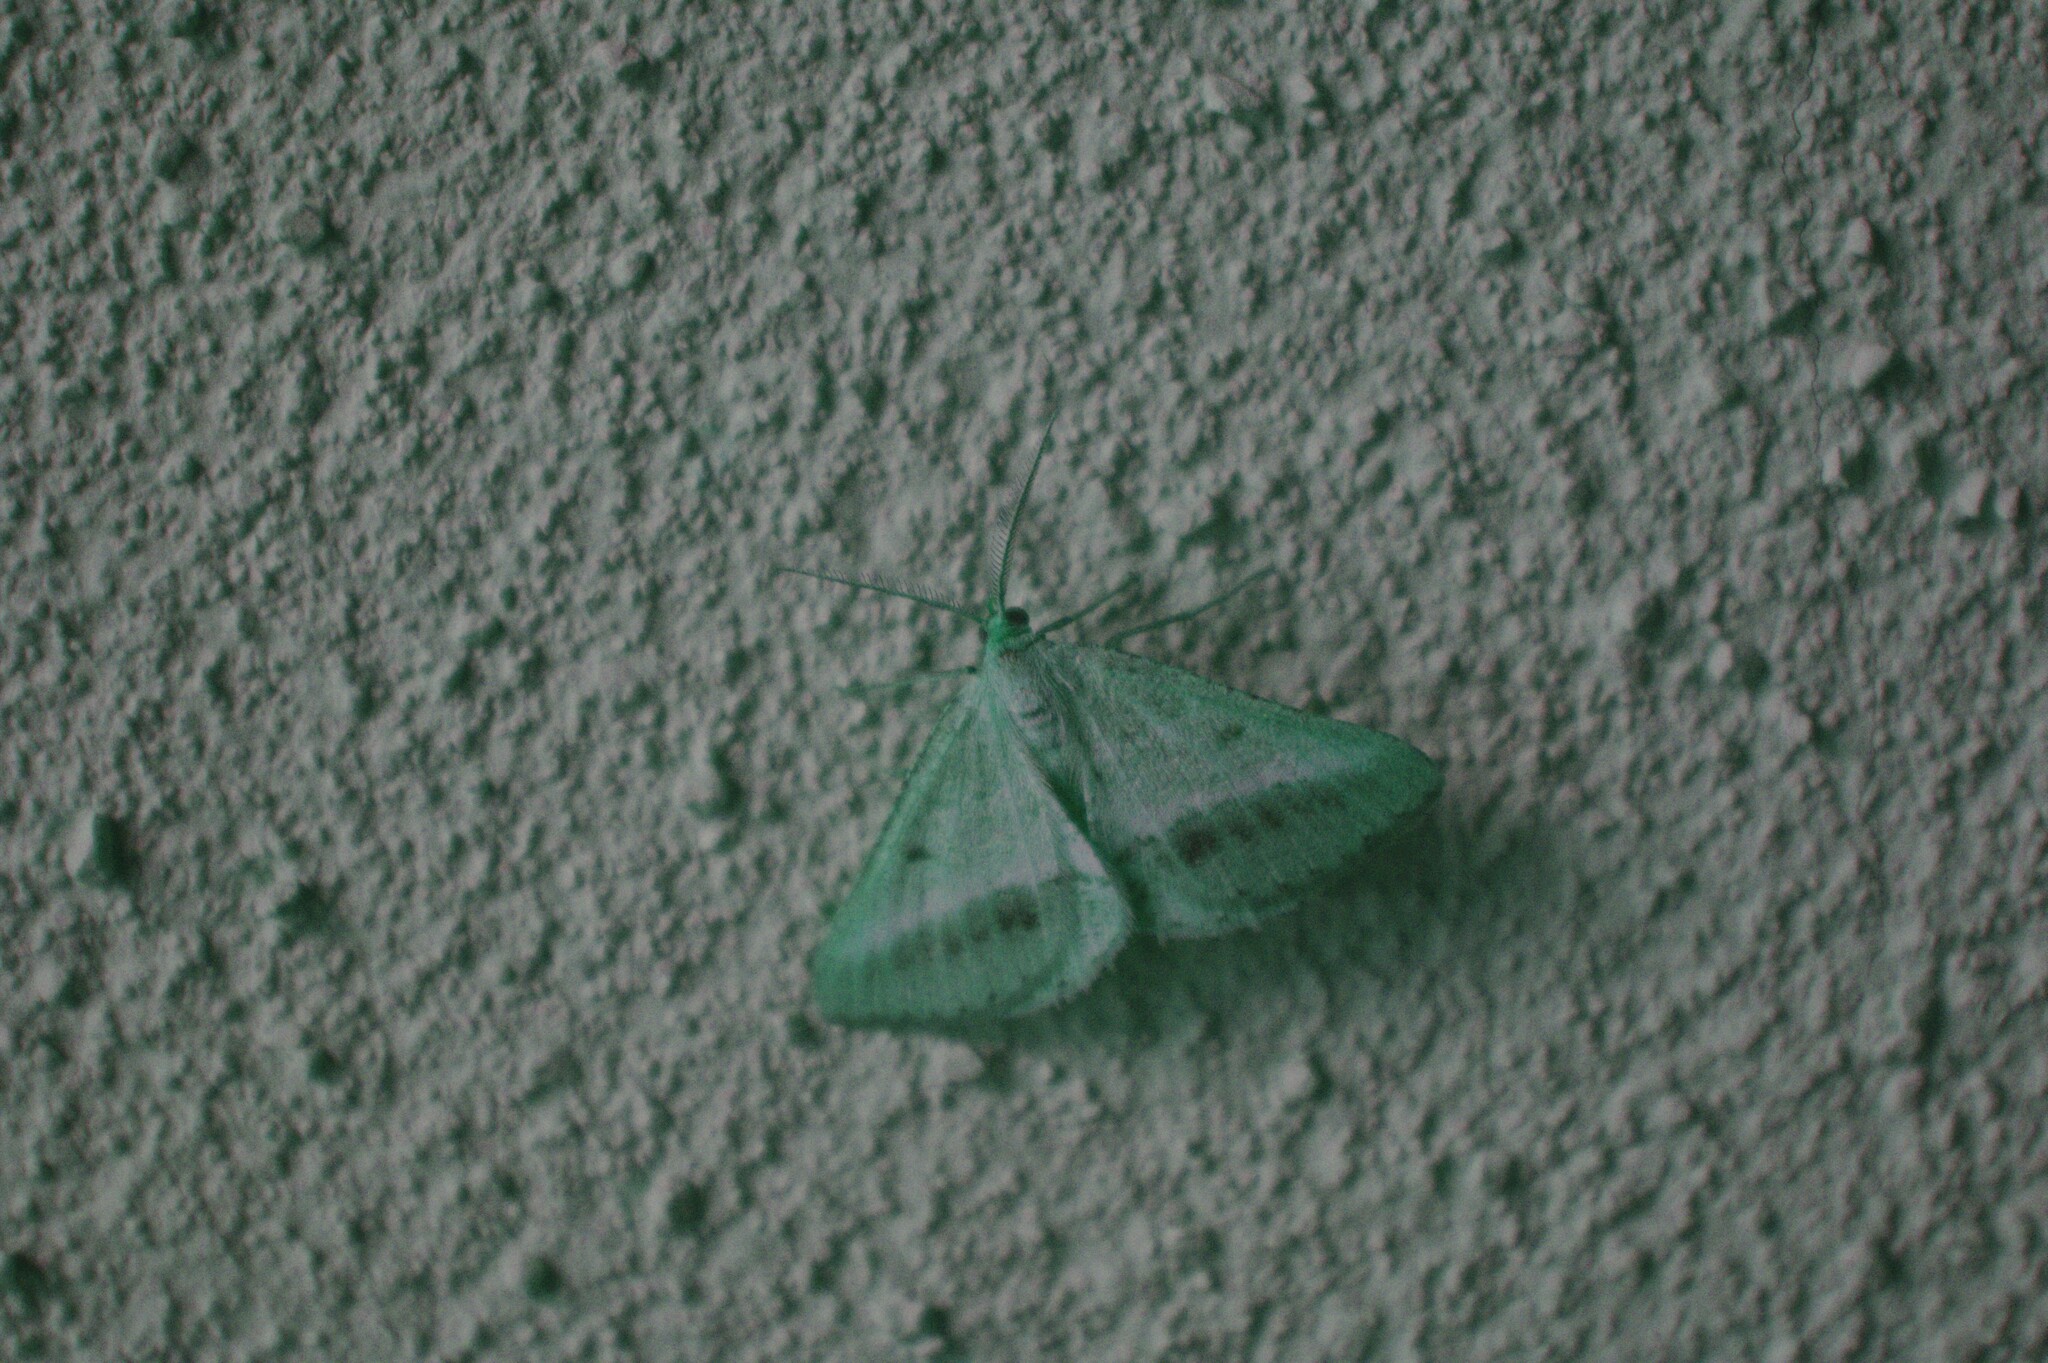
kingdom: Animalia
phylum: Arthropoda
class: Insecta
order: Lepidoptera
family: Geometridae
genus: Tephrina
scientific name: Tephrina arenacearia
